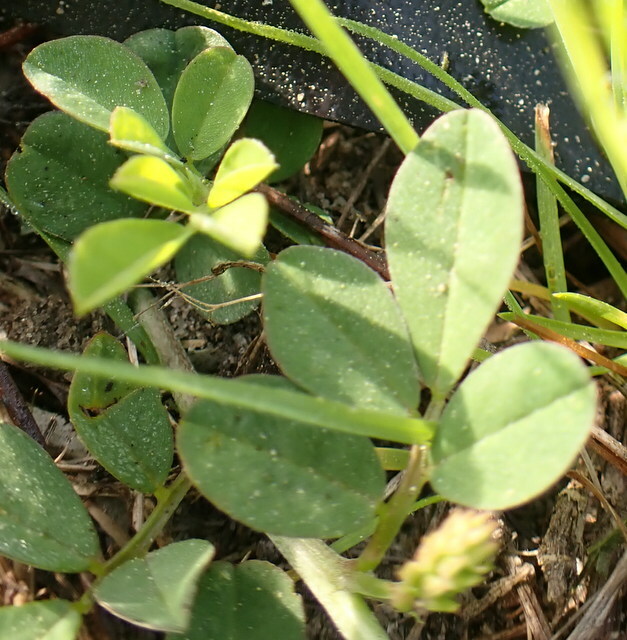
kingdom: Plantae
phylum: Tracheophyta
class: Magnoliopsida
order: Fabales
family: Fabaceae
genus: Indigofera
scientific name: Indigofera spicata
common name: Creeping indigo
